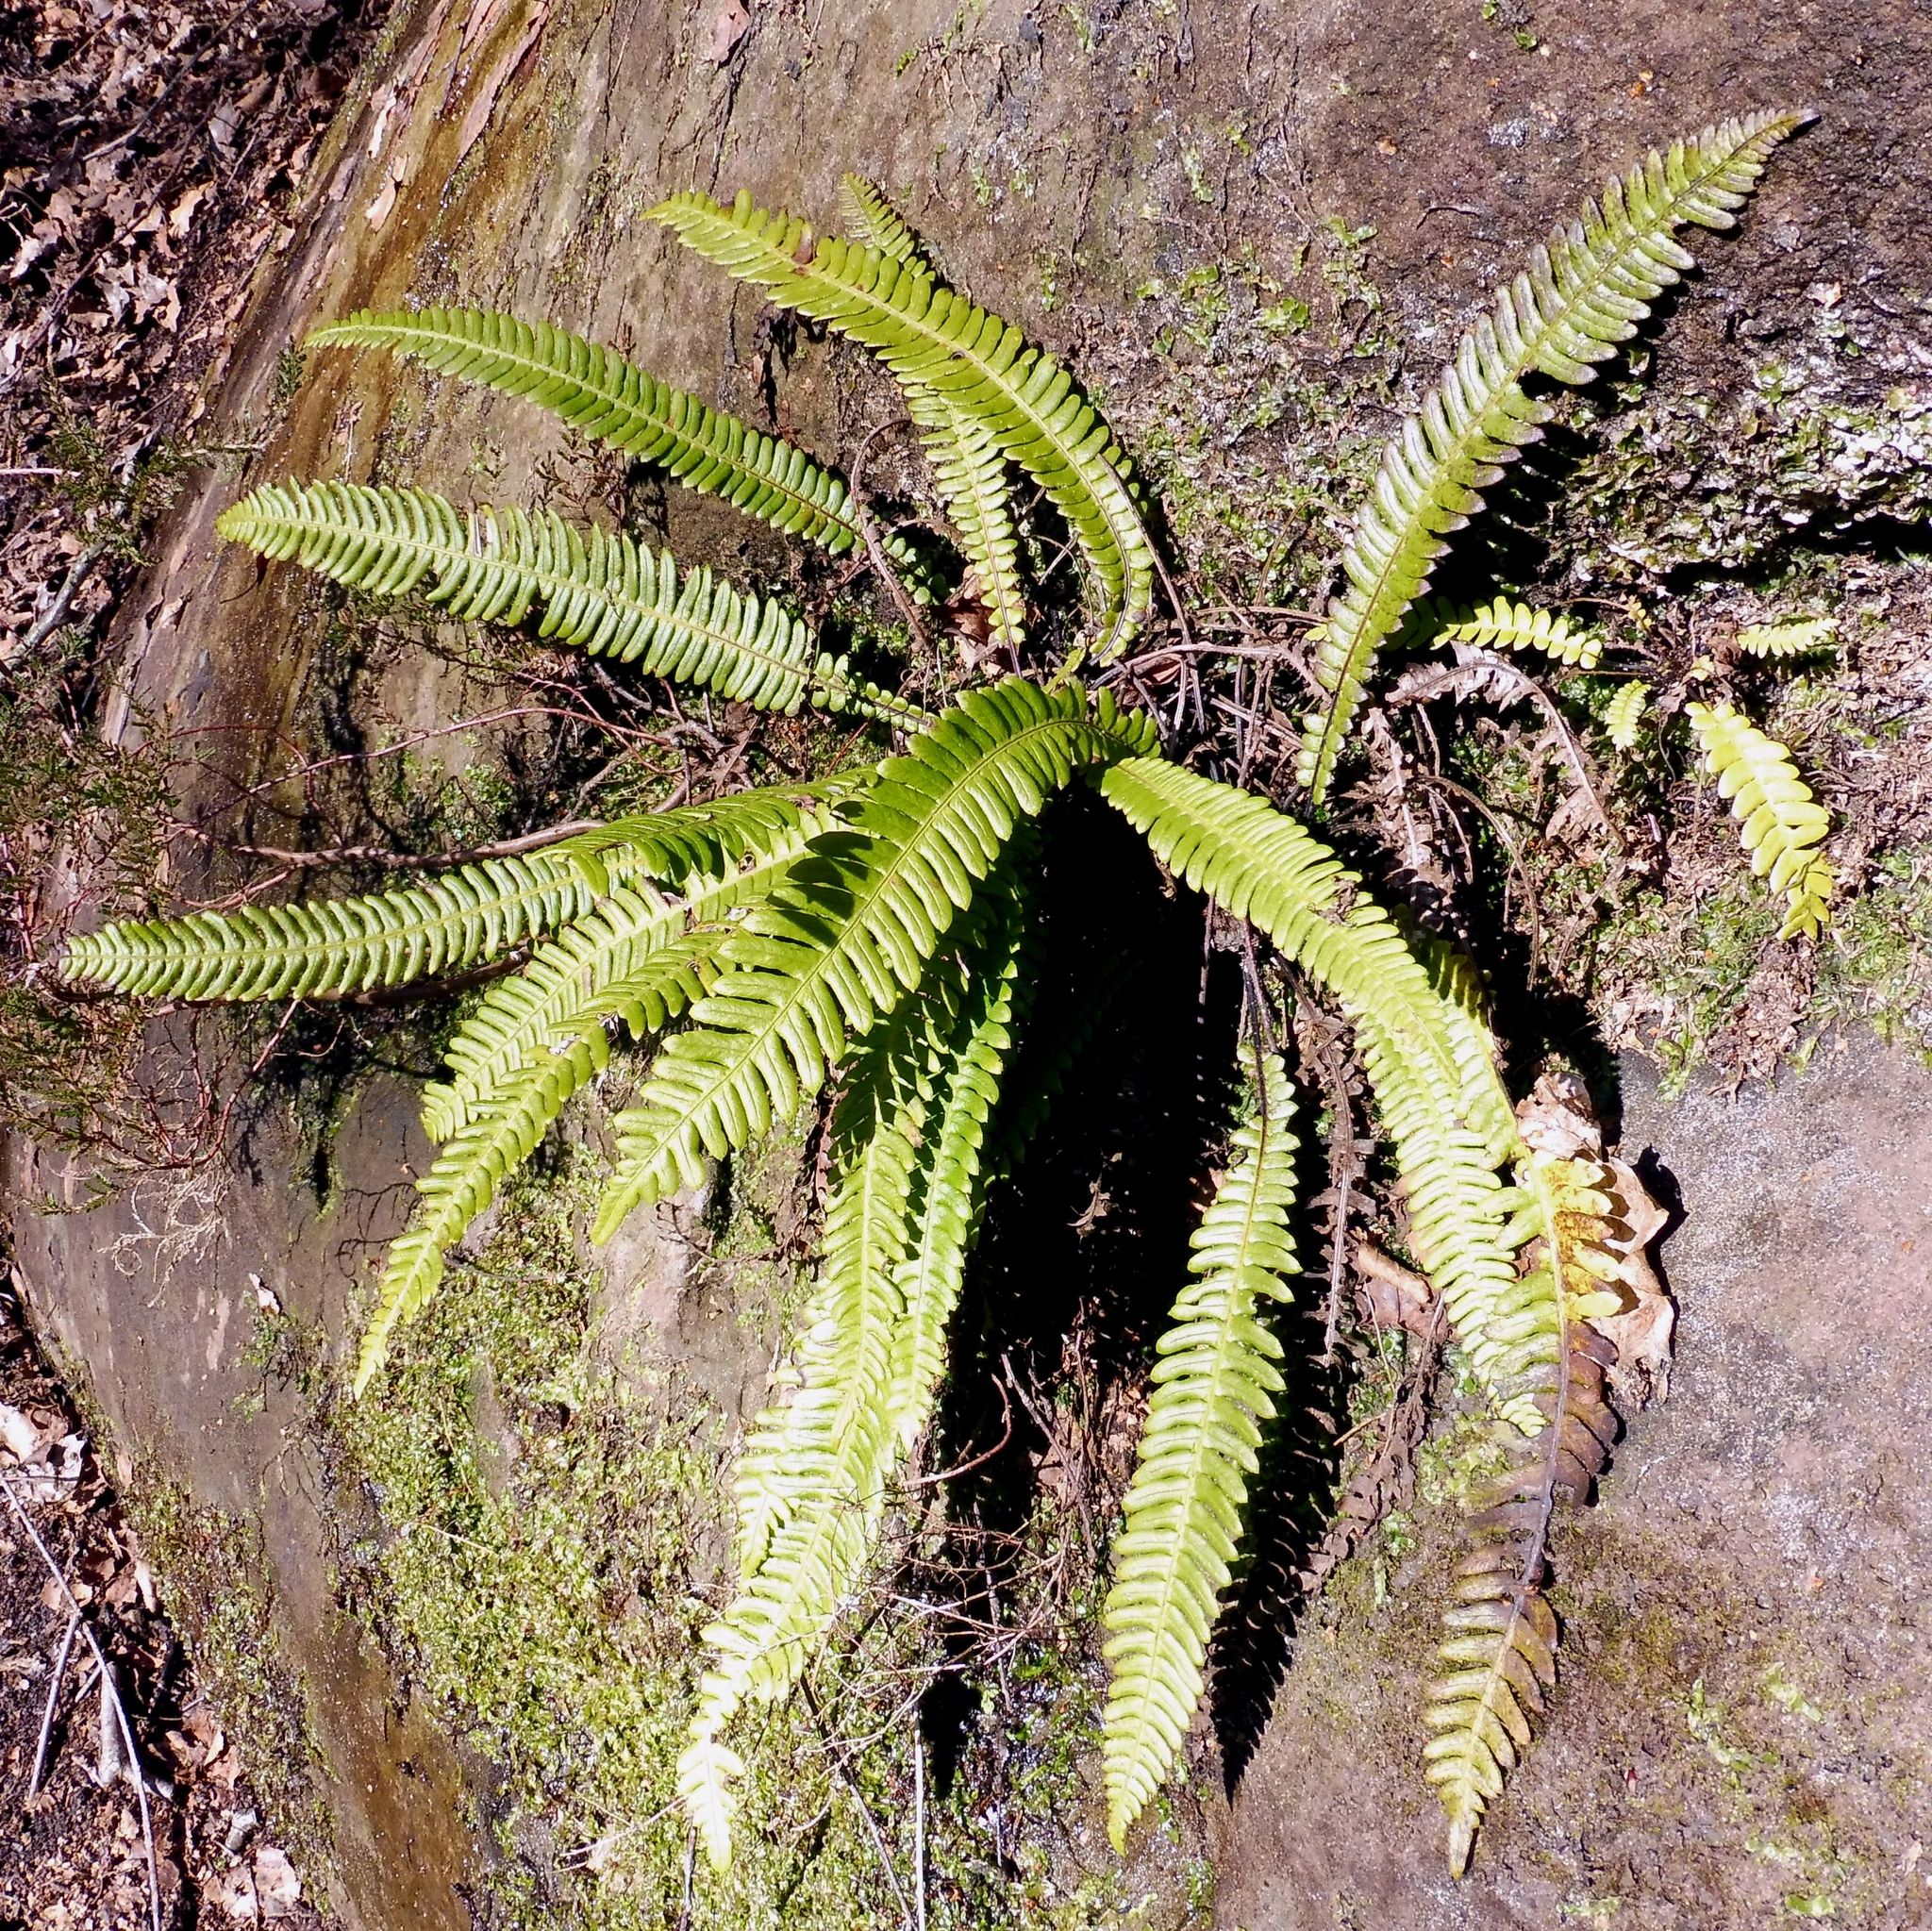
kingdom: Plantae
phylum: Tracheophyta
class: Polypodiopsida
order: Polypodiales
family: Blechnaceae
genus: Struthiopteris
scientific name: Struthiopteris spicant
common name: Deer fern
